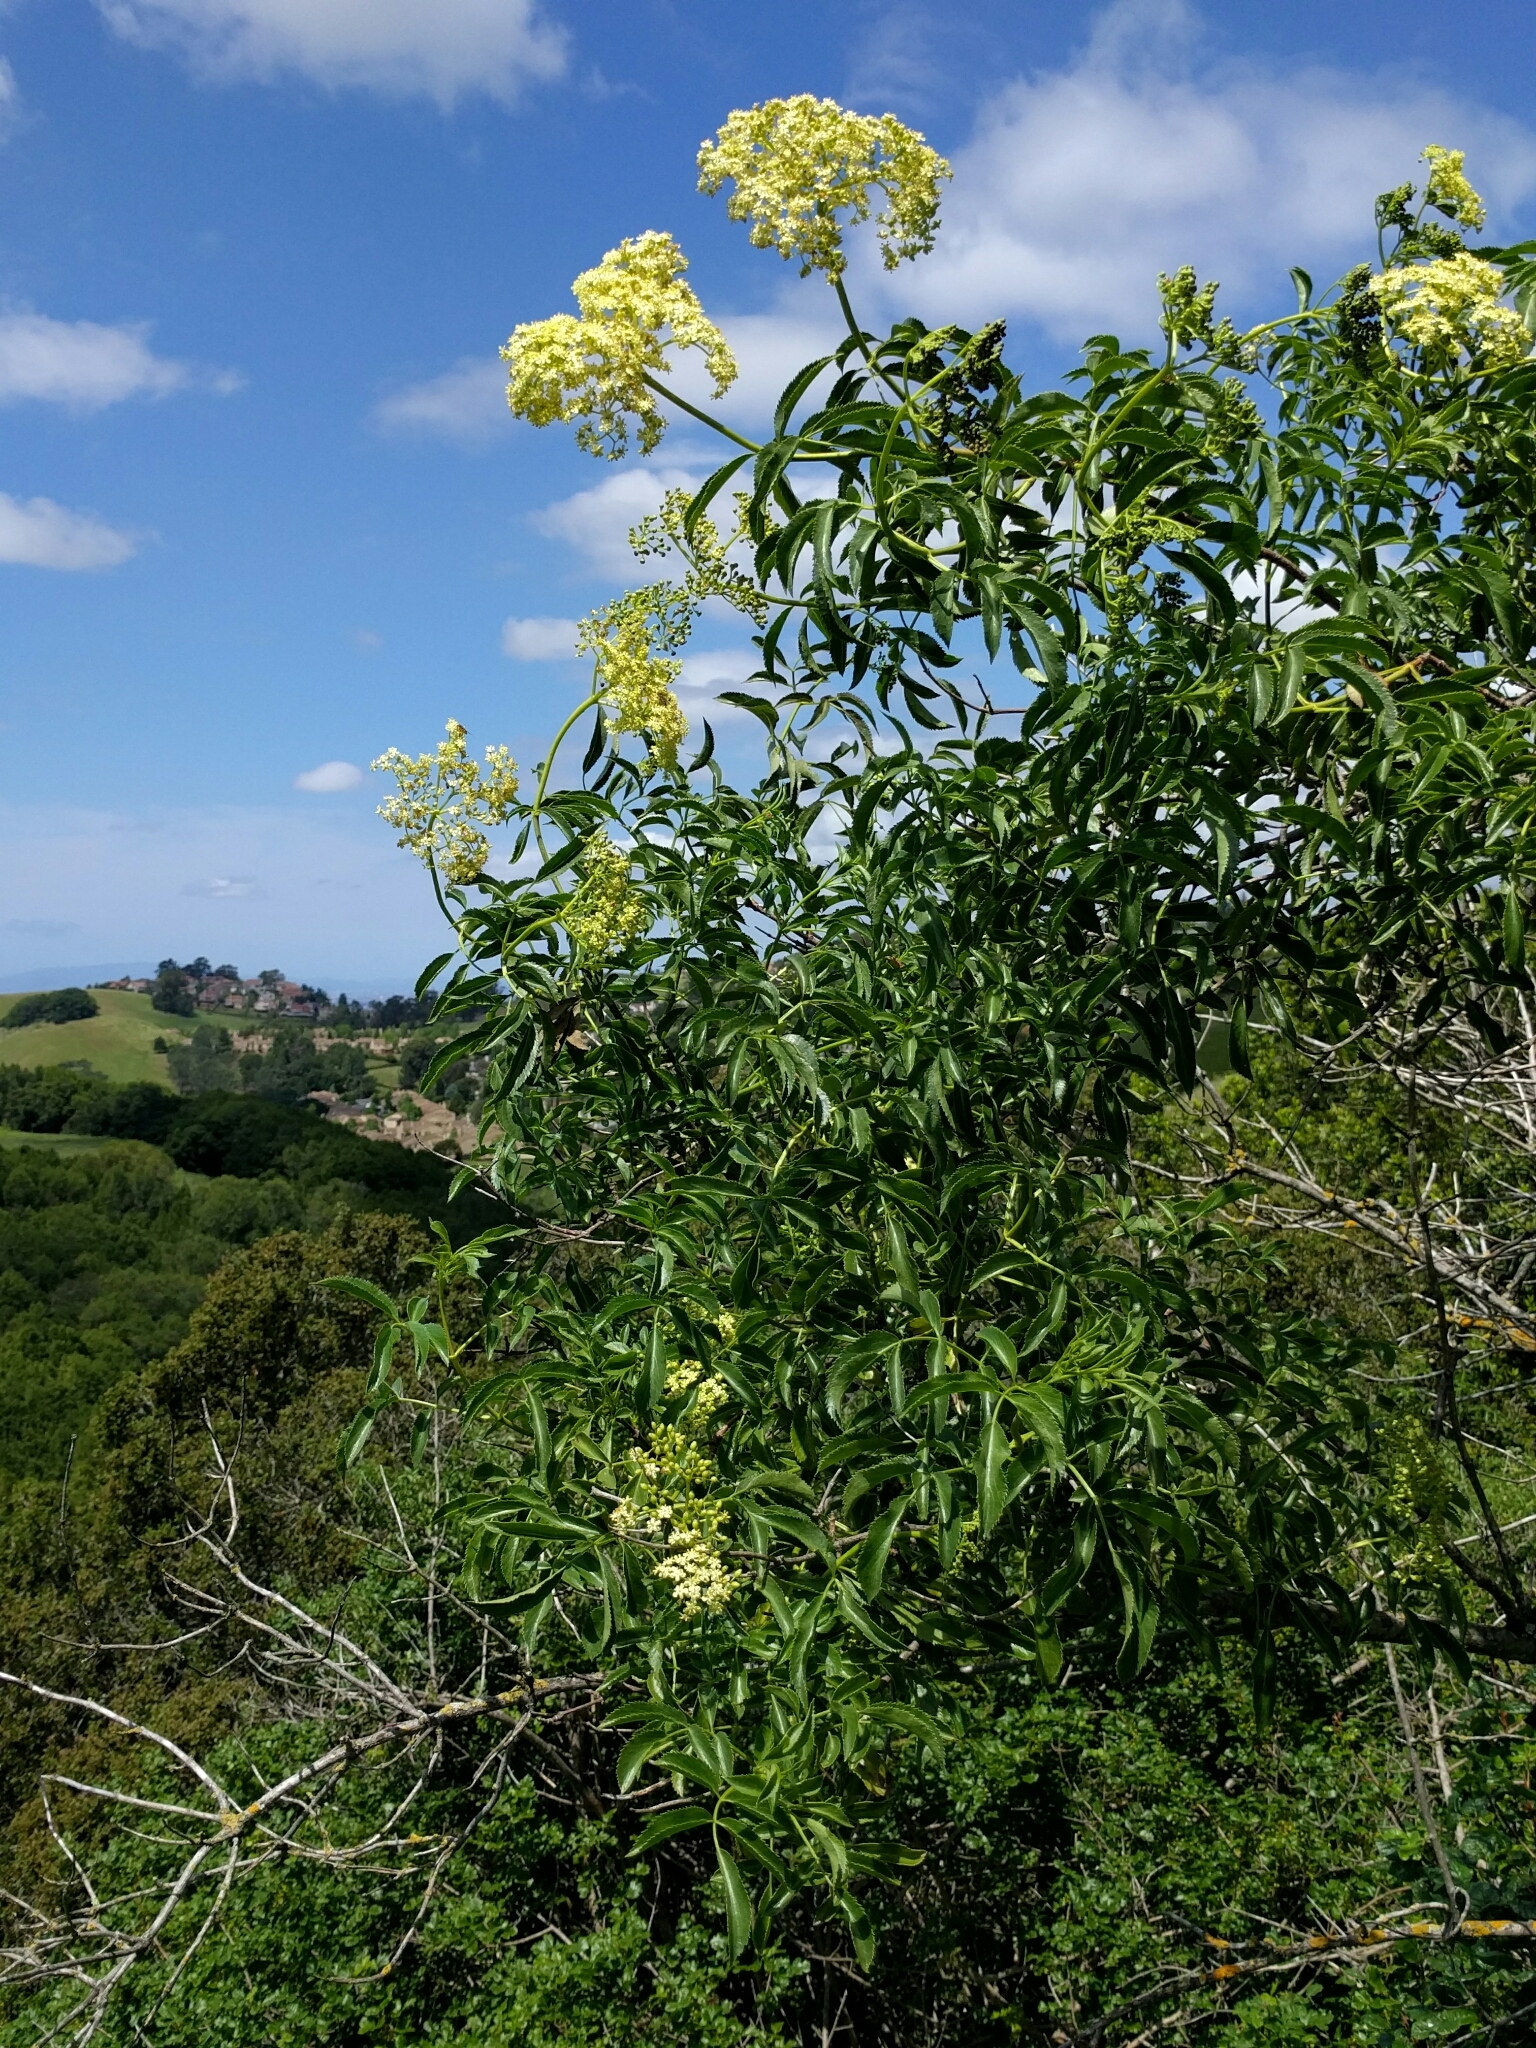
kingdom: Plantae
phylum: Tracheophyta
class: Magnoliopsida
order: Dipsacales
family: Viburnaceae
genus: Sambucus
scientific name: Sambucus cerulea
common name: Blue elder
